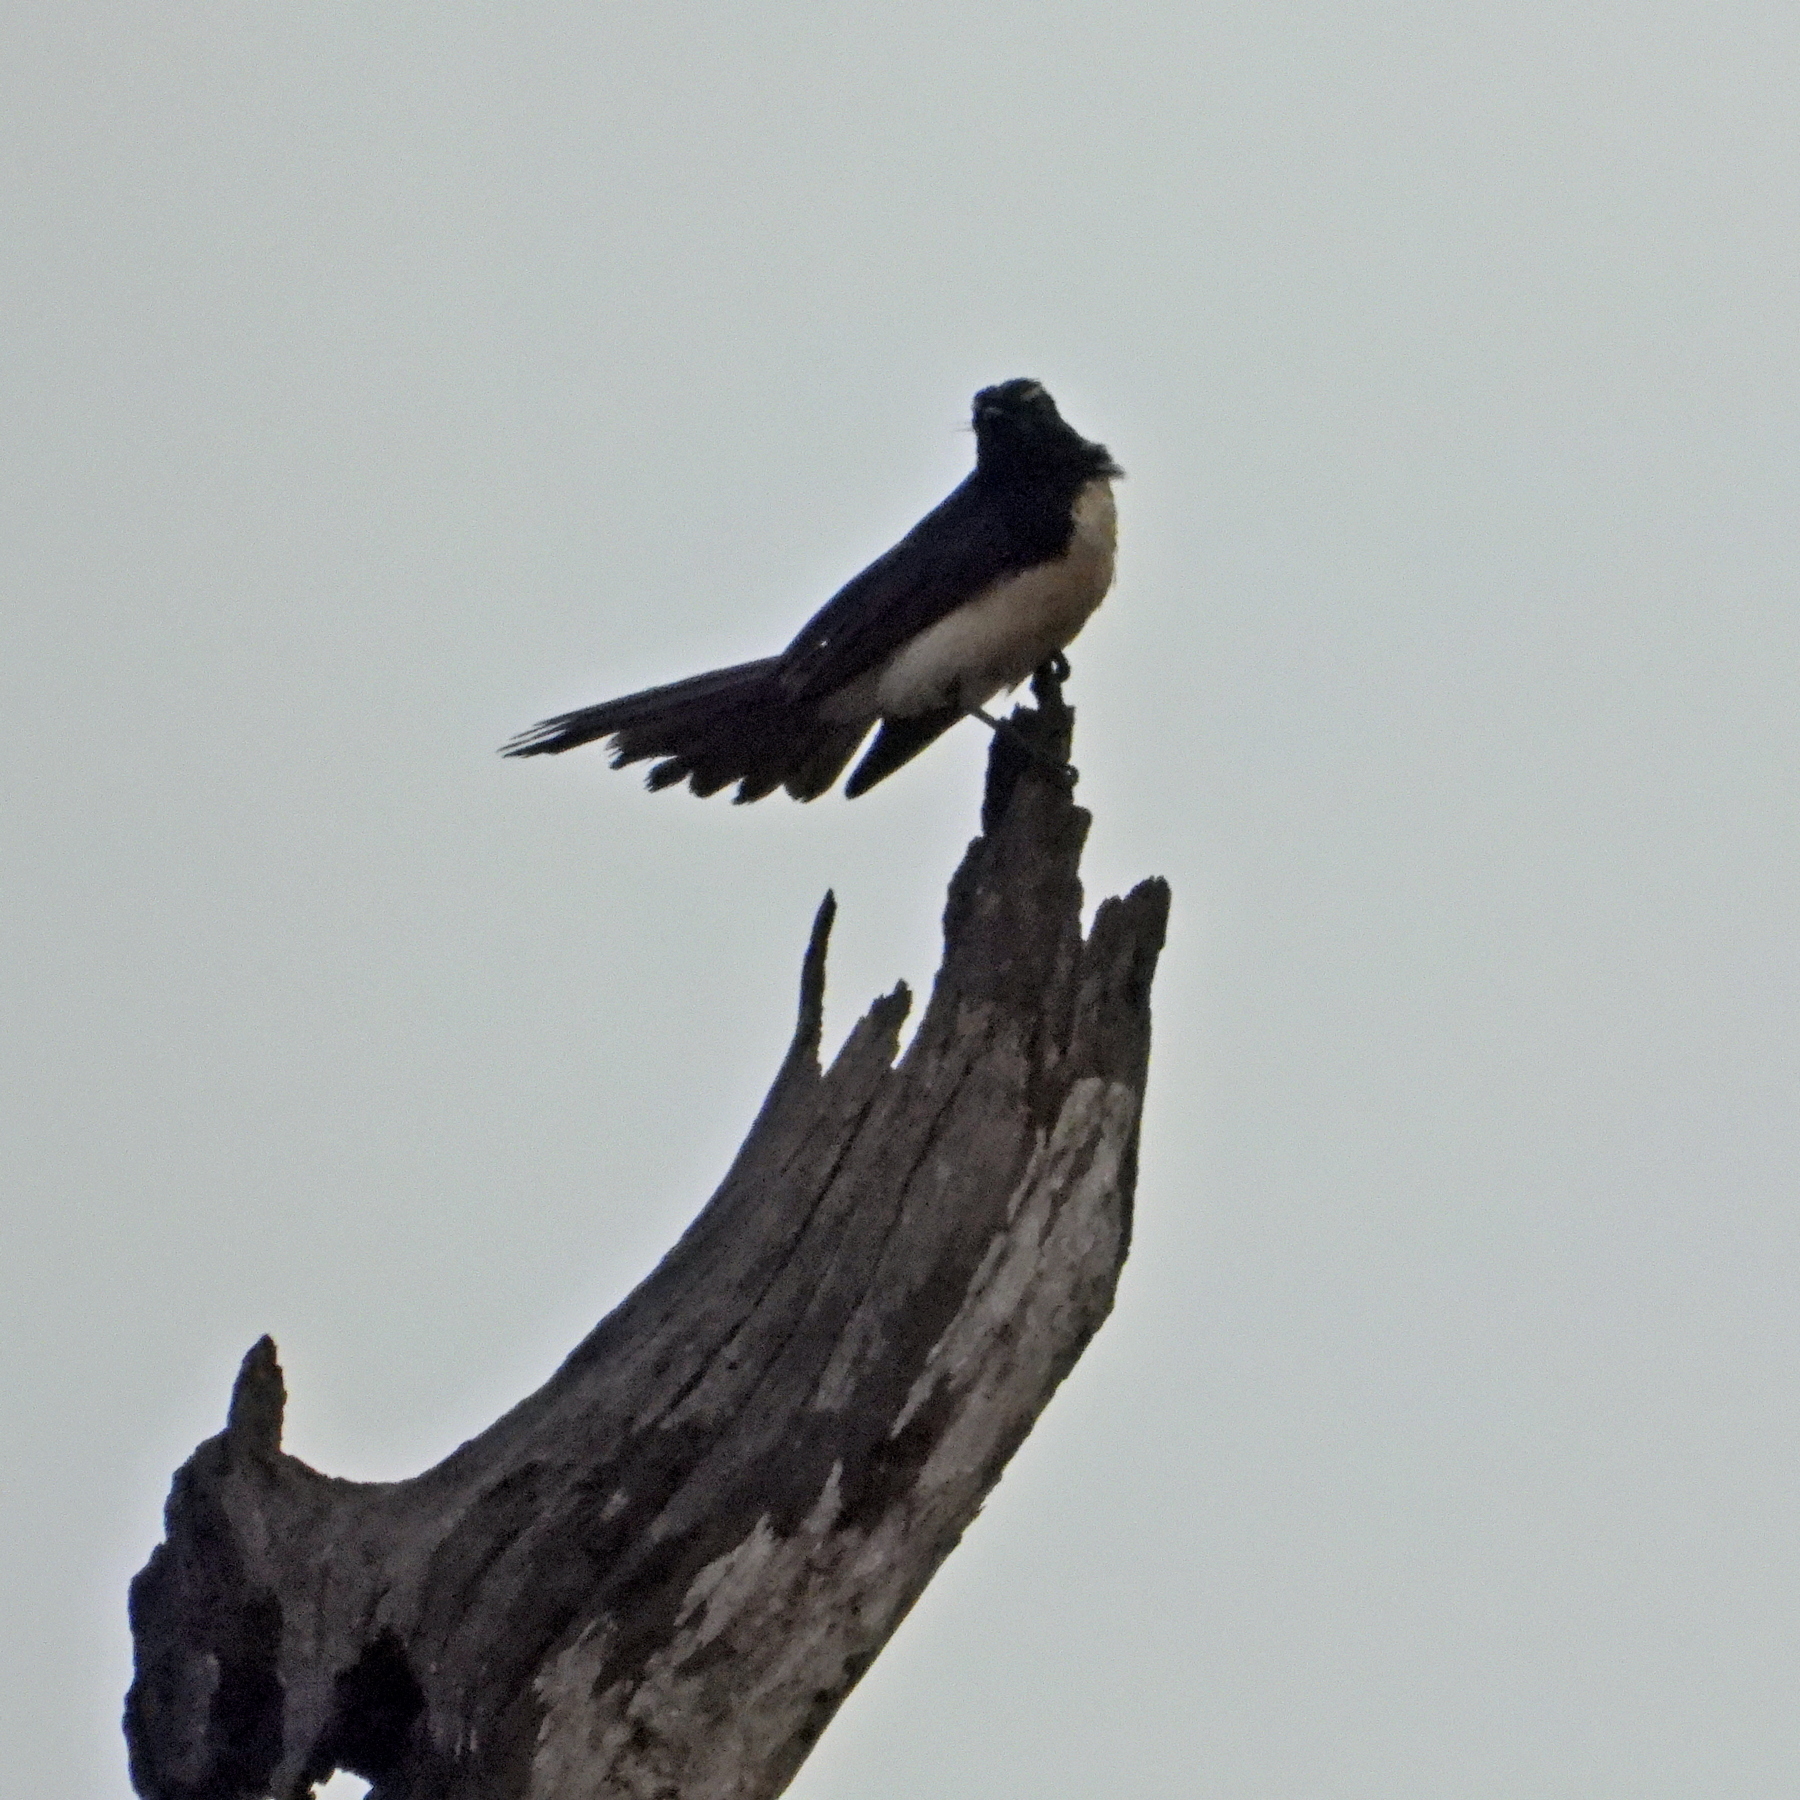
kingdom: Animalia
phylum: Chordata
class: Aves
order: Passeriformes
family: Rhipiduridae
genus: Rhipidura
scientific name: Rhipidura leucophrys
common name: Willie wagtail
